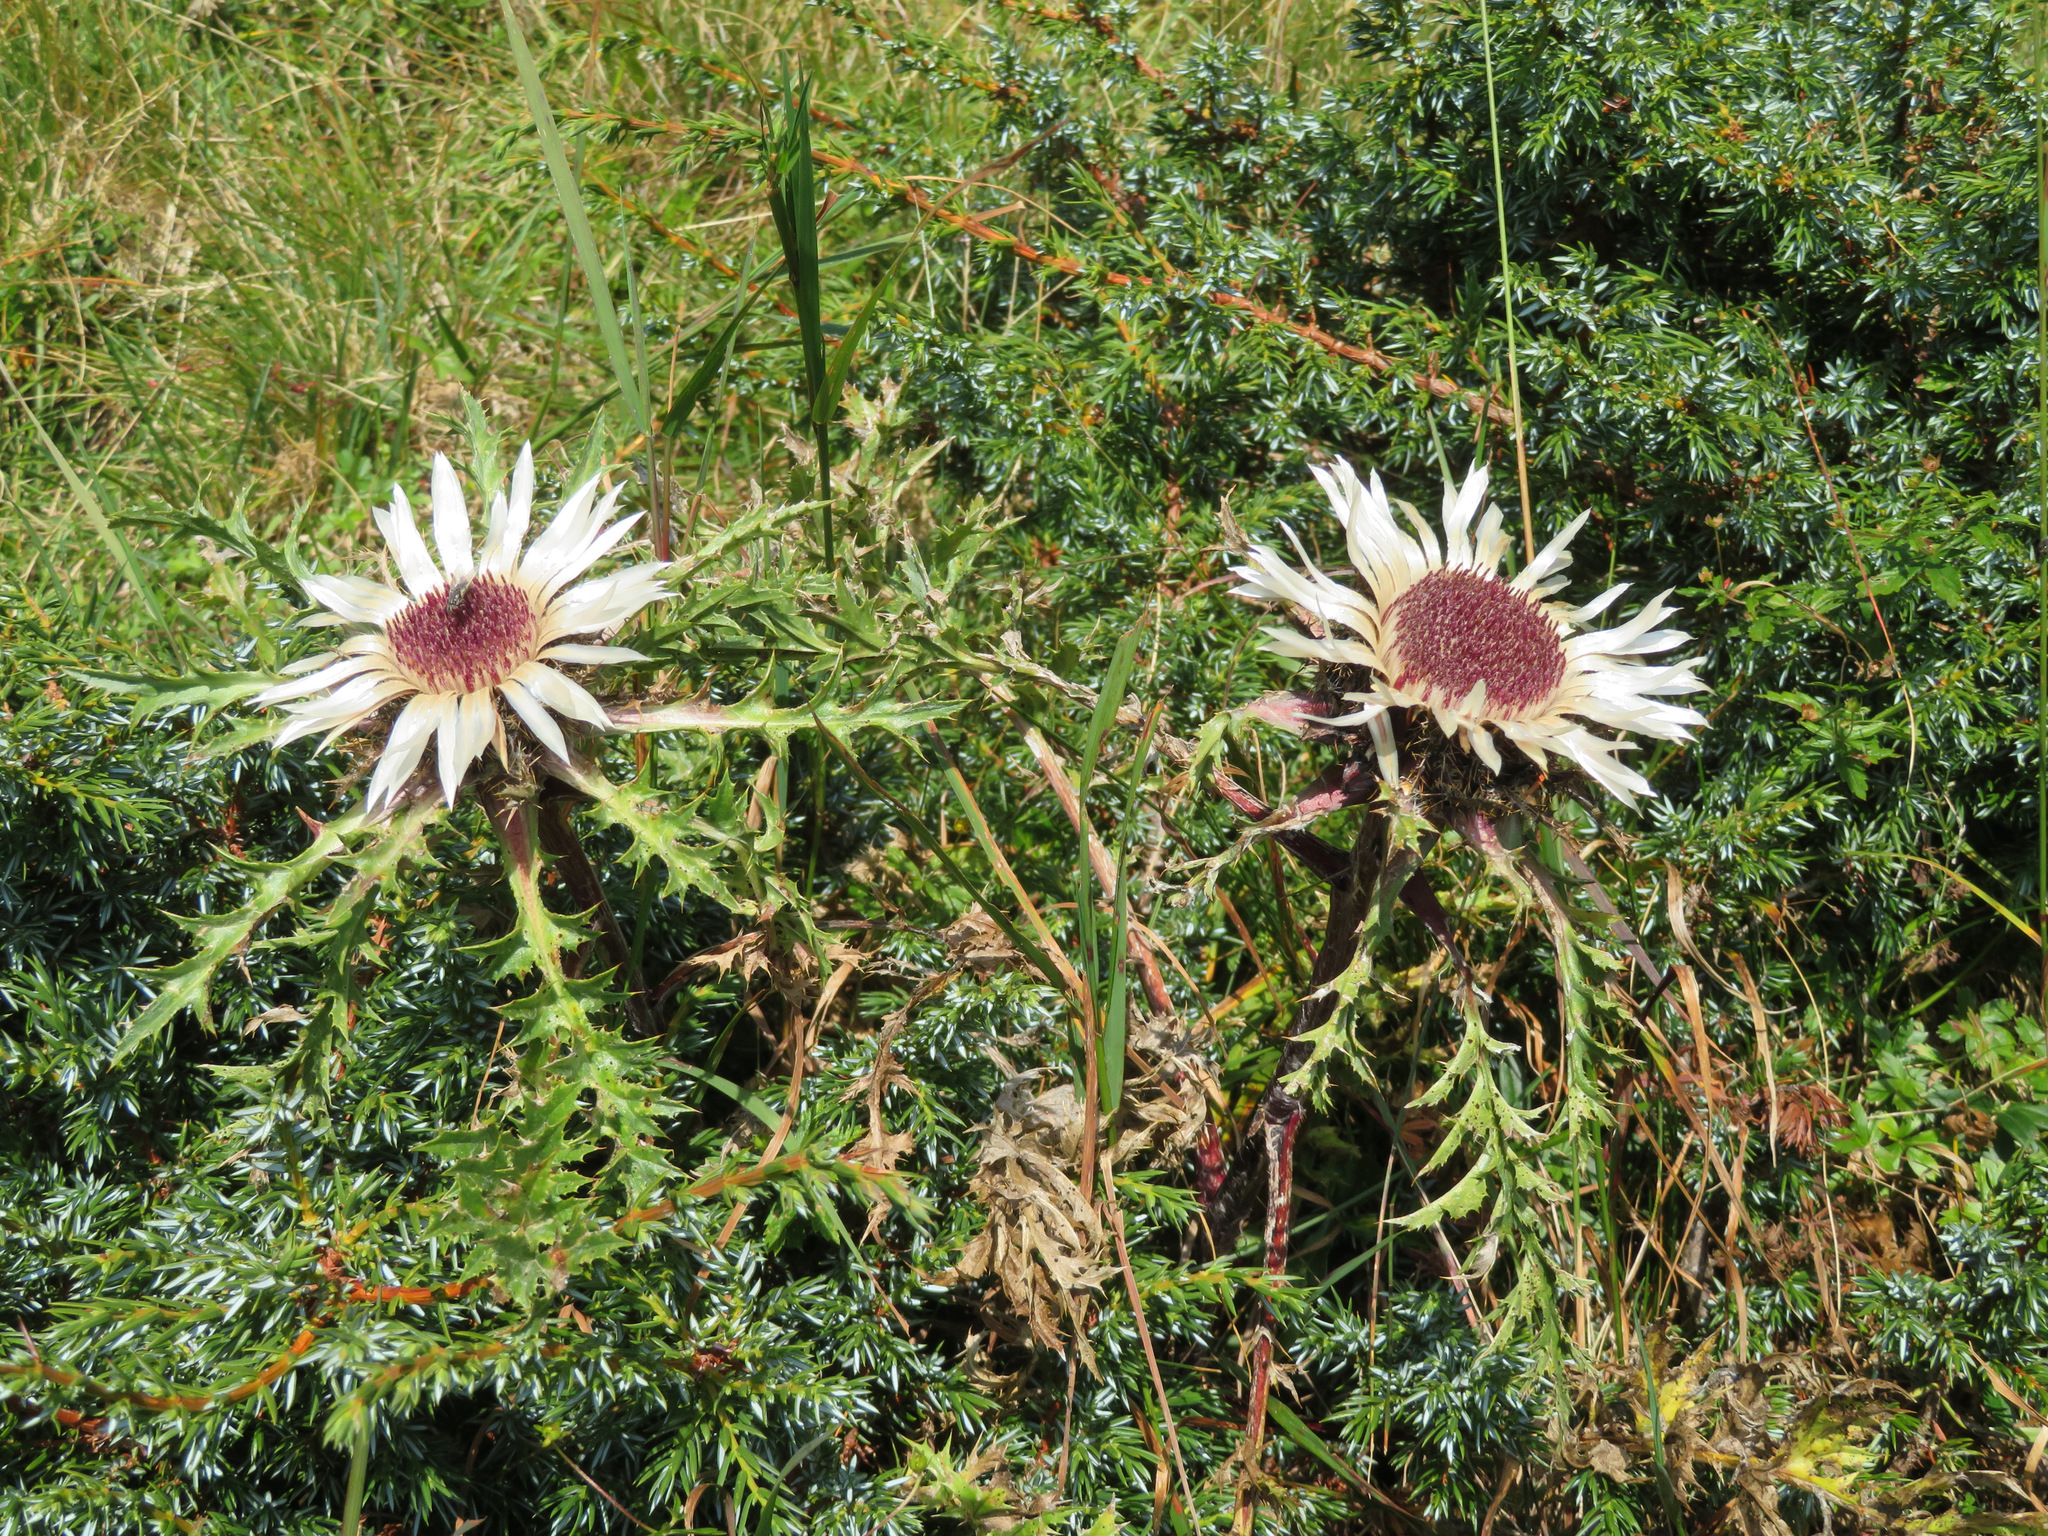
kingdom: Plantae
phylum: Tracheophyta
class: Magnoliopsida
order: Asterales
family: Asteraceae
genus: Carlina
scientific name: Carlina acaulis
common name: Stemless carline thistle
